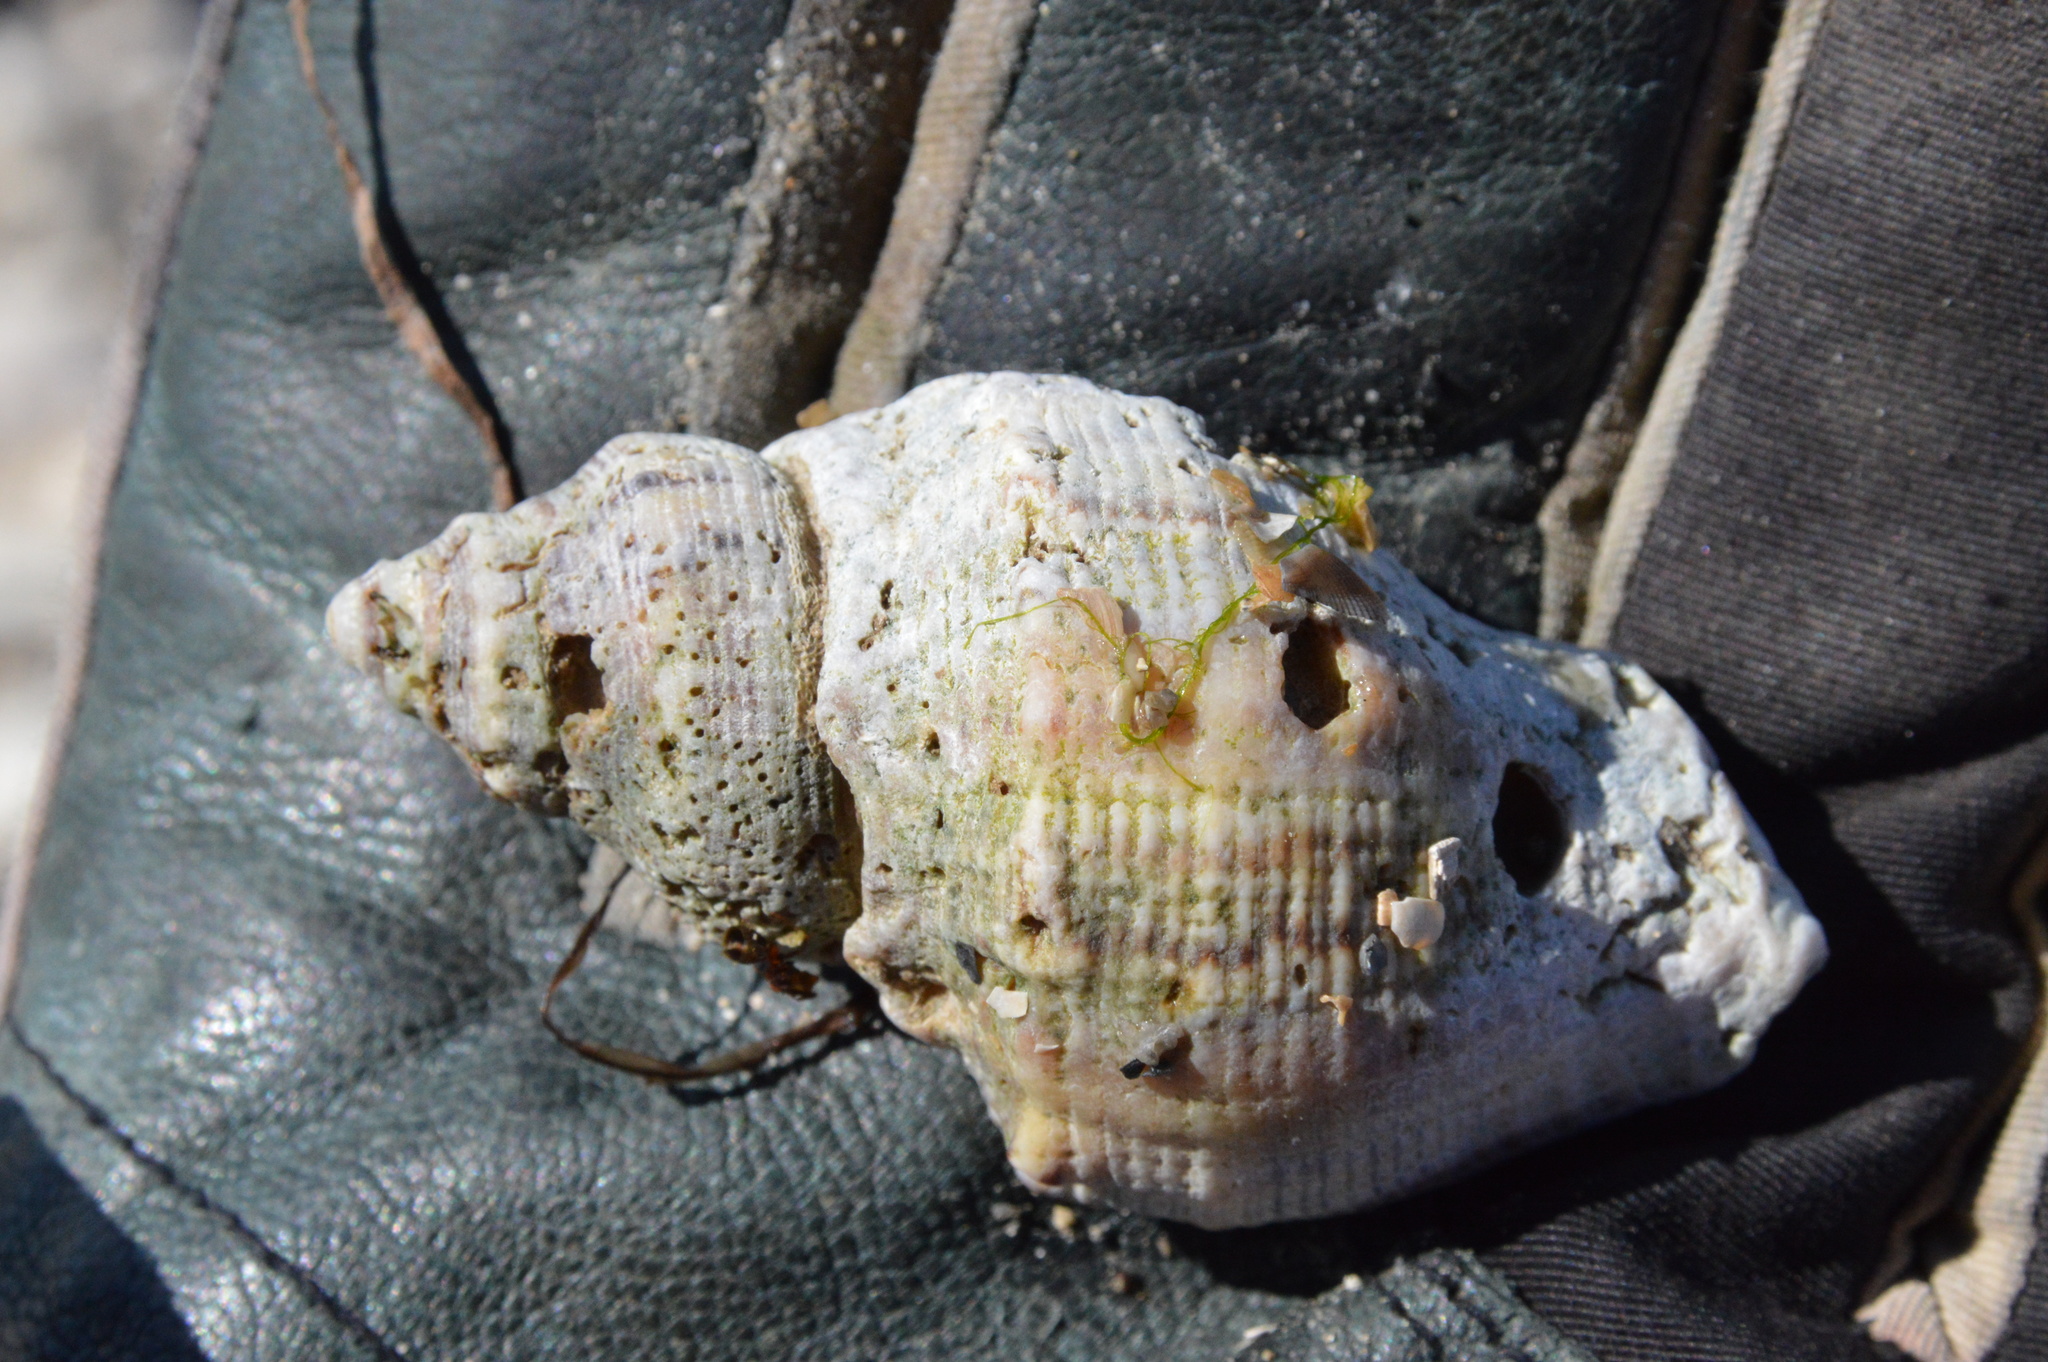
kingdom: Animalia
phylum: Mollusca
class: Gastropoda
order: Neogastropoda
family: Muricidae
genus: Stramonita
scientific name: Stramonita canaliculata
